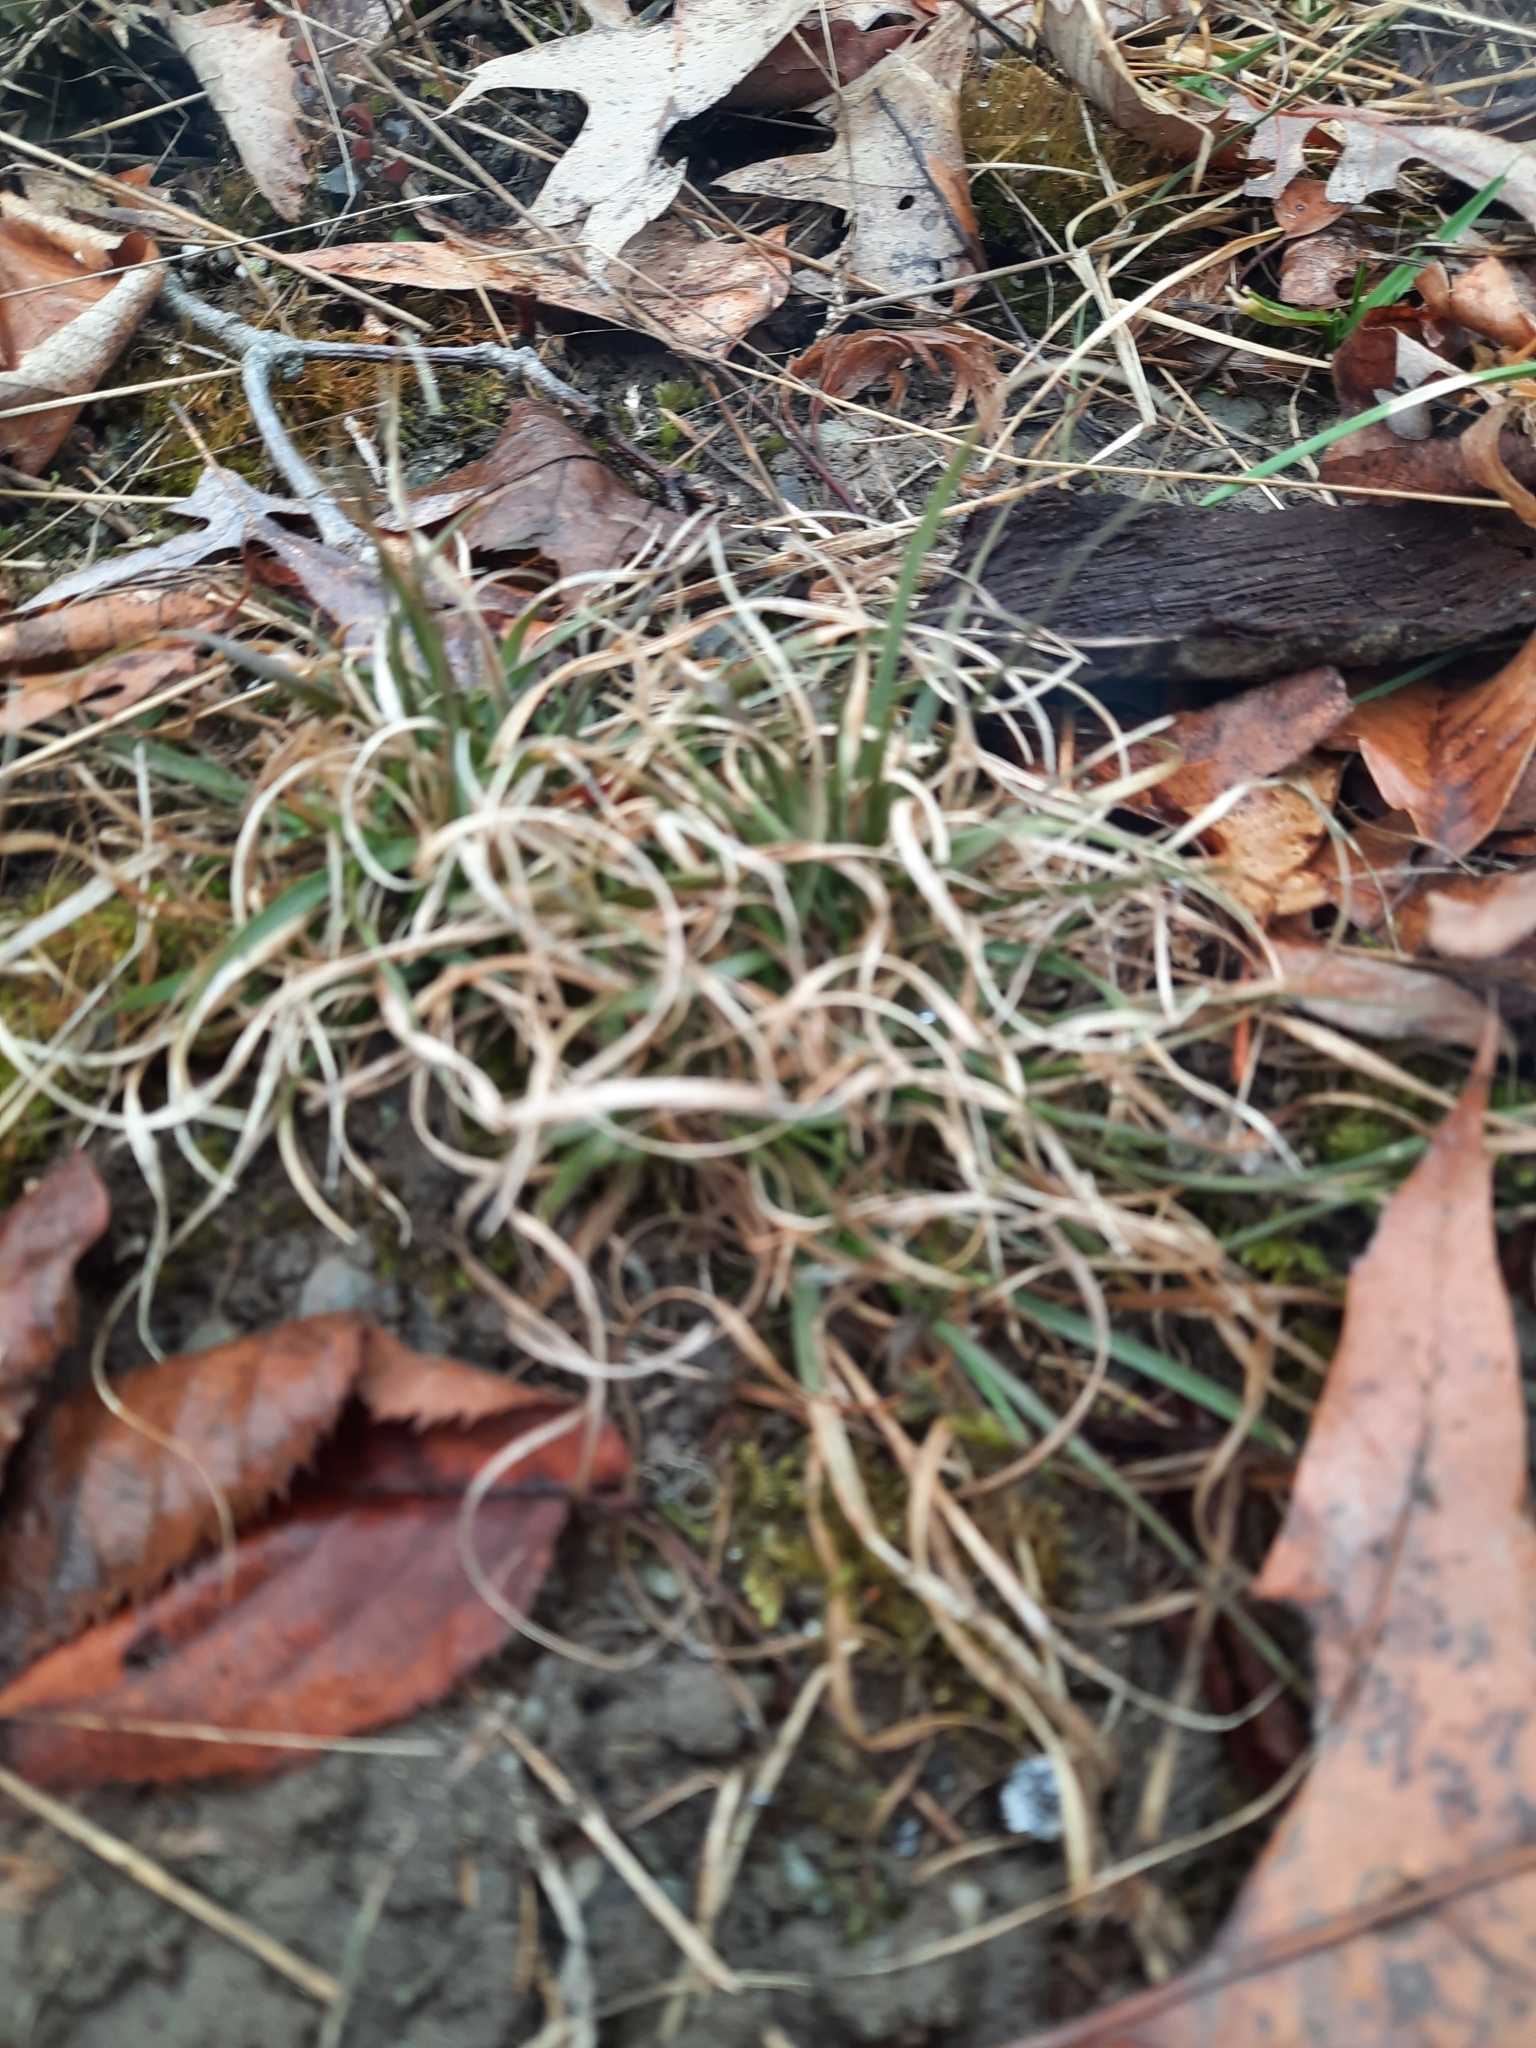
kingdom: Plantae
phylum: Tracheophyta
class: Liliopsida
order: Poales
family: Poaceae
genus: Danthonia
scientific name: Danthonia spicata
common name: Common wild oatgrass
